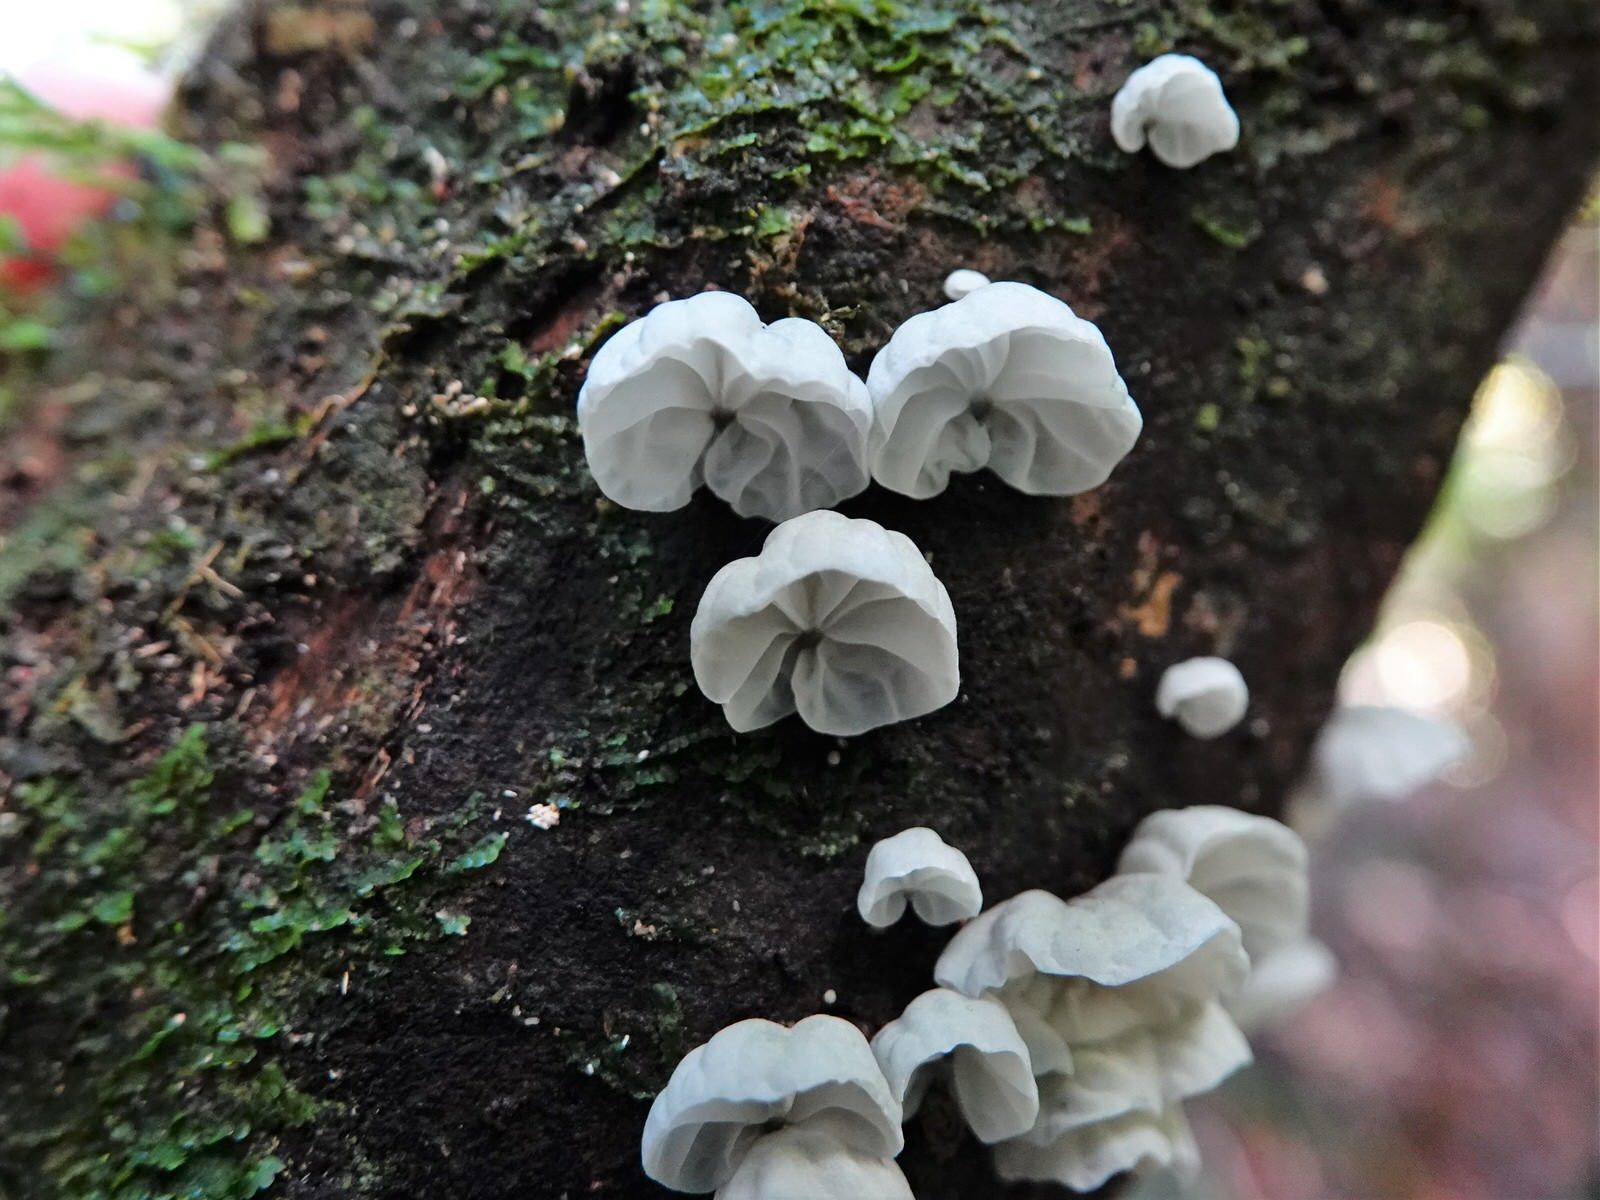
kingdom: Fungi
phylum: Basidiomycota
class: Agaricomycetes
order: Agaricales
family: Marasmiaceae
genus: Campanella
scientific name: Campanella tristis
